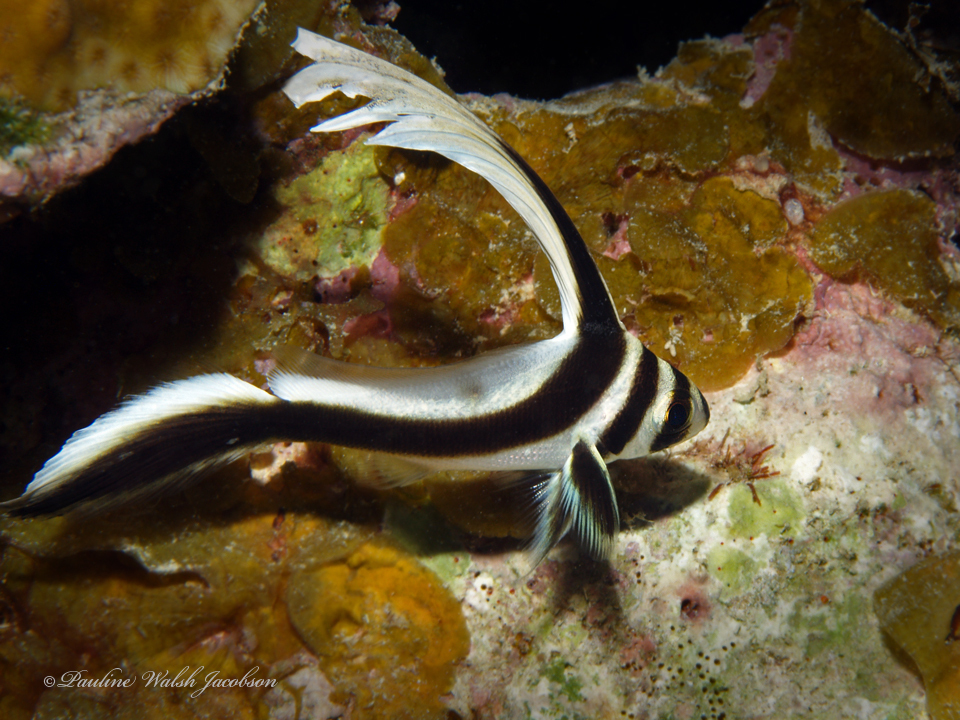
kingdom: Animalia
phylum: Chordata
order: Perciformes
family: Sciaenidae
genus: Equetus
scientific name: Equetus punctatus
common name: Spotted drum
